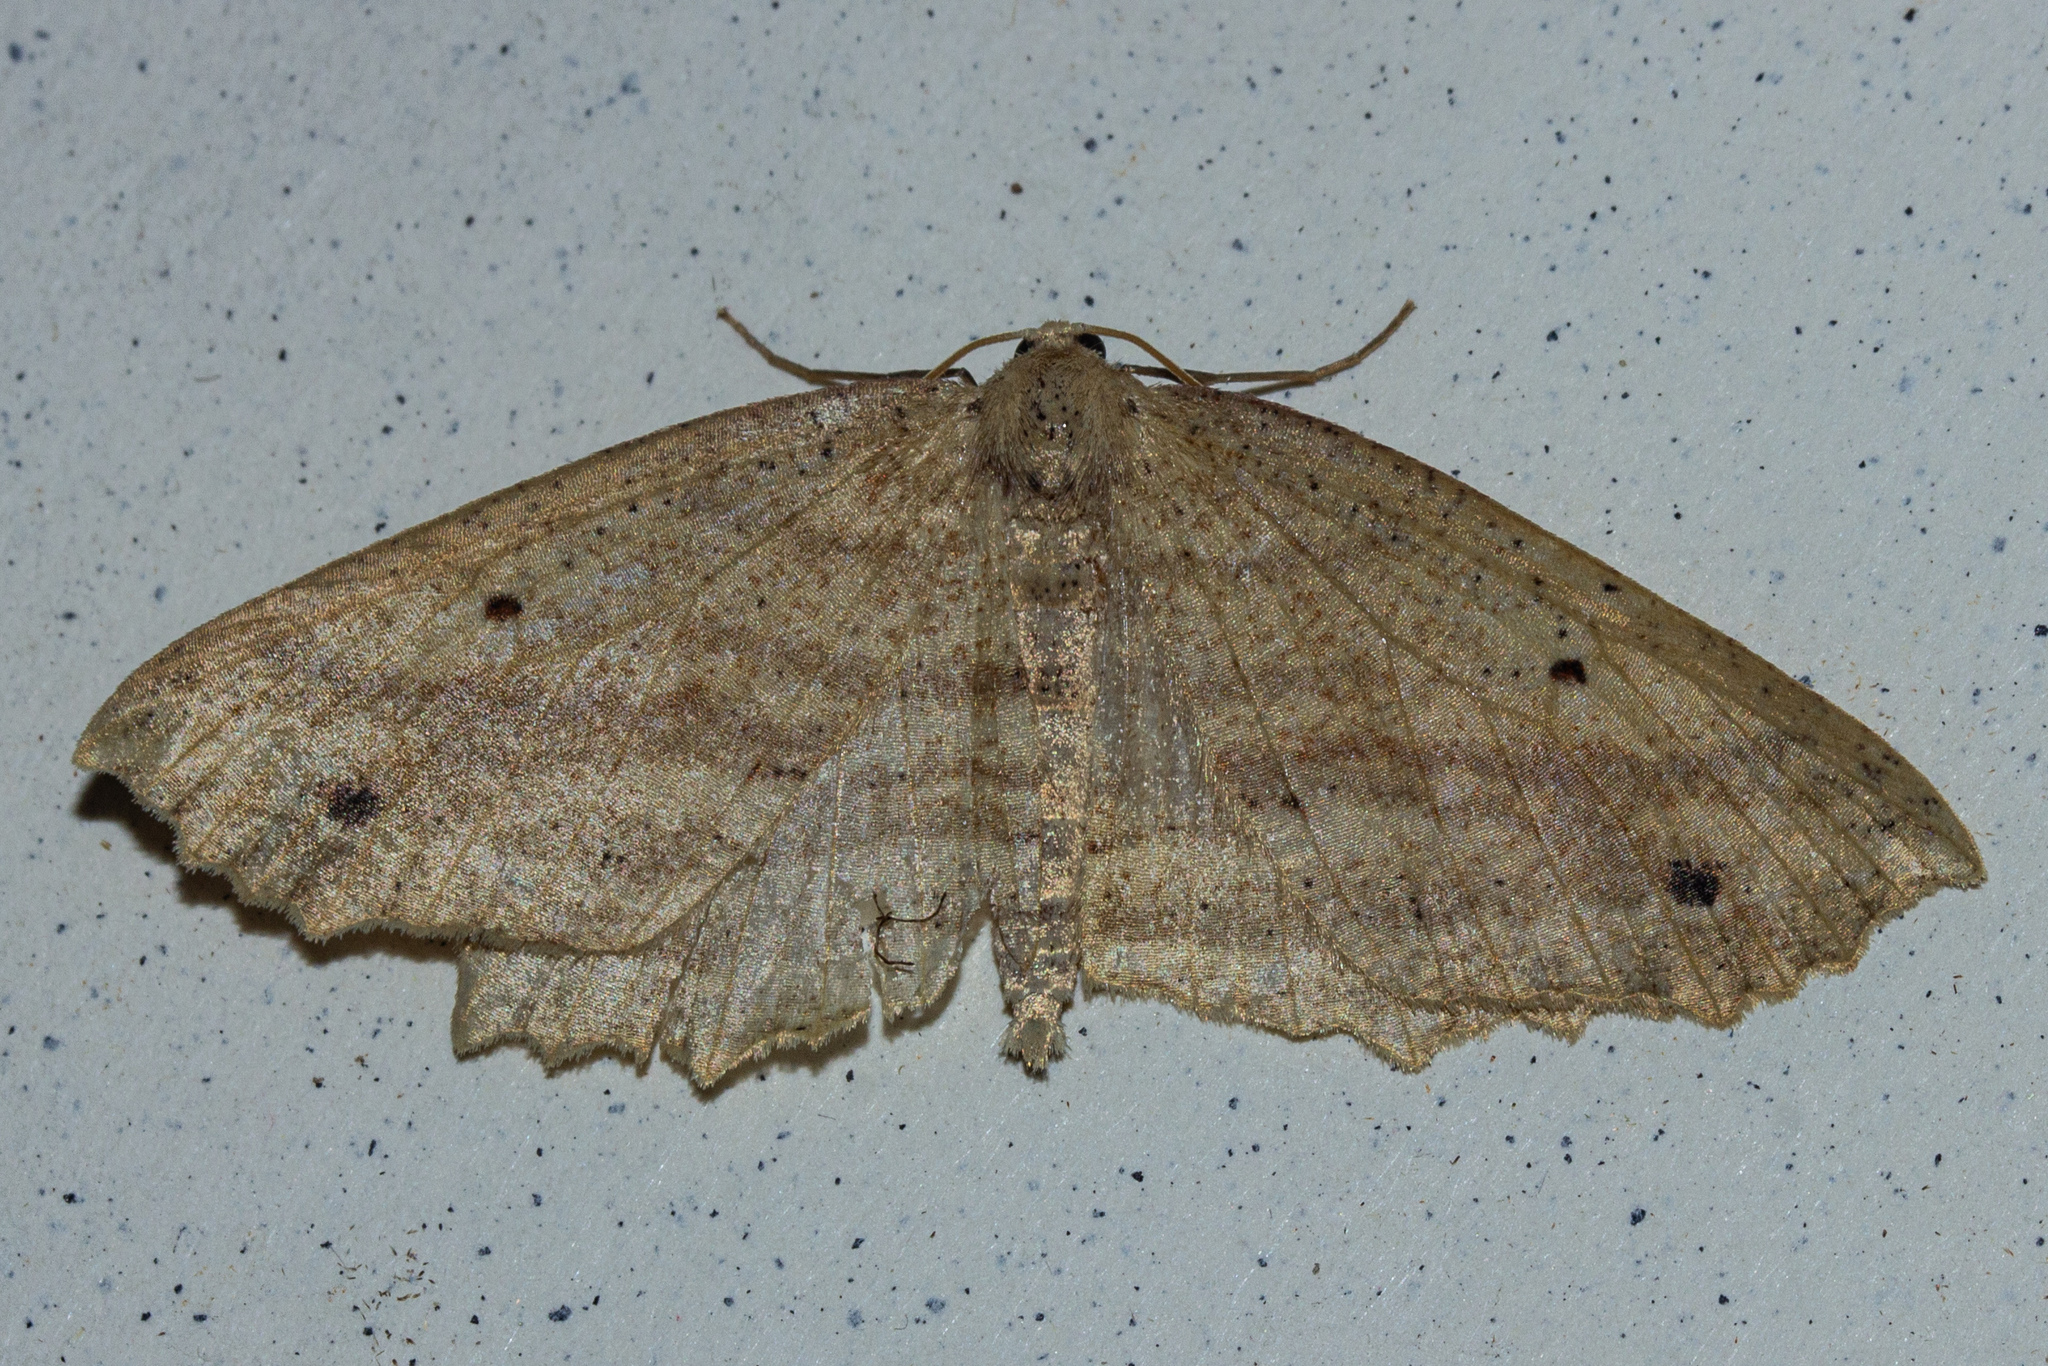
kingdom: Animalia
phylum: Arthropoda
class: Insecta
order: Lepidoptera
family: Geometridae
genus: Xyridacma
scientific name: Xyridacma veronicae
